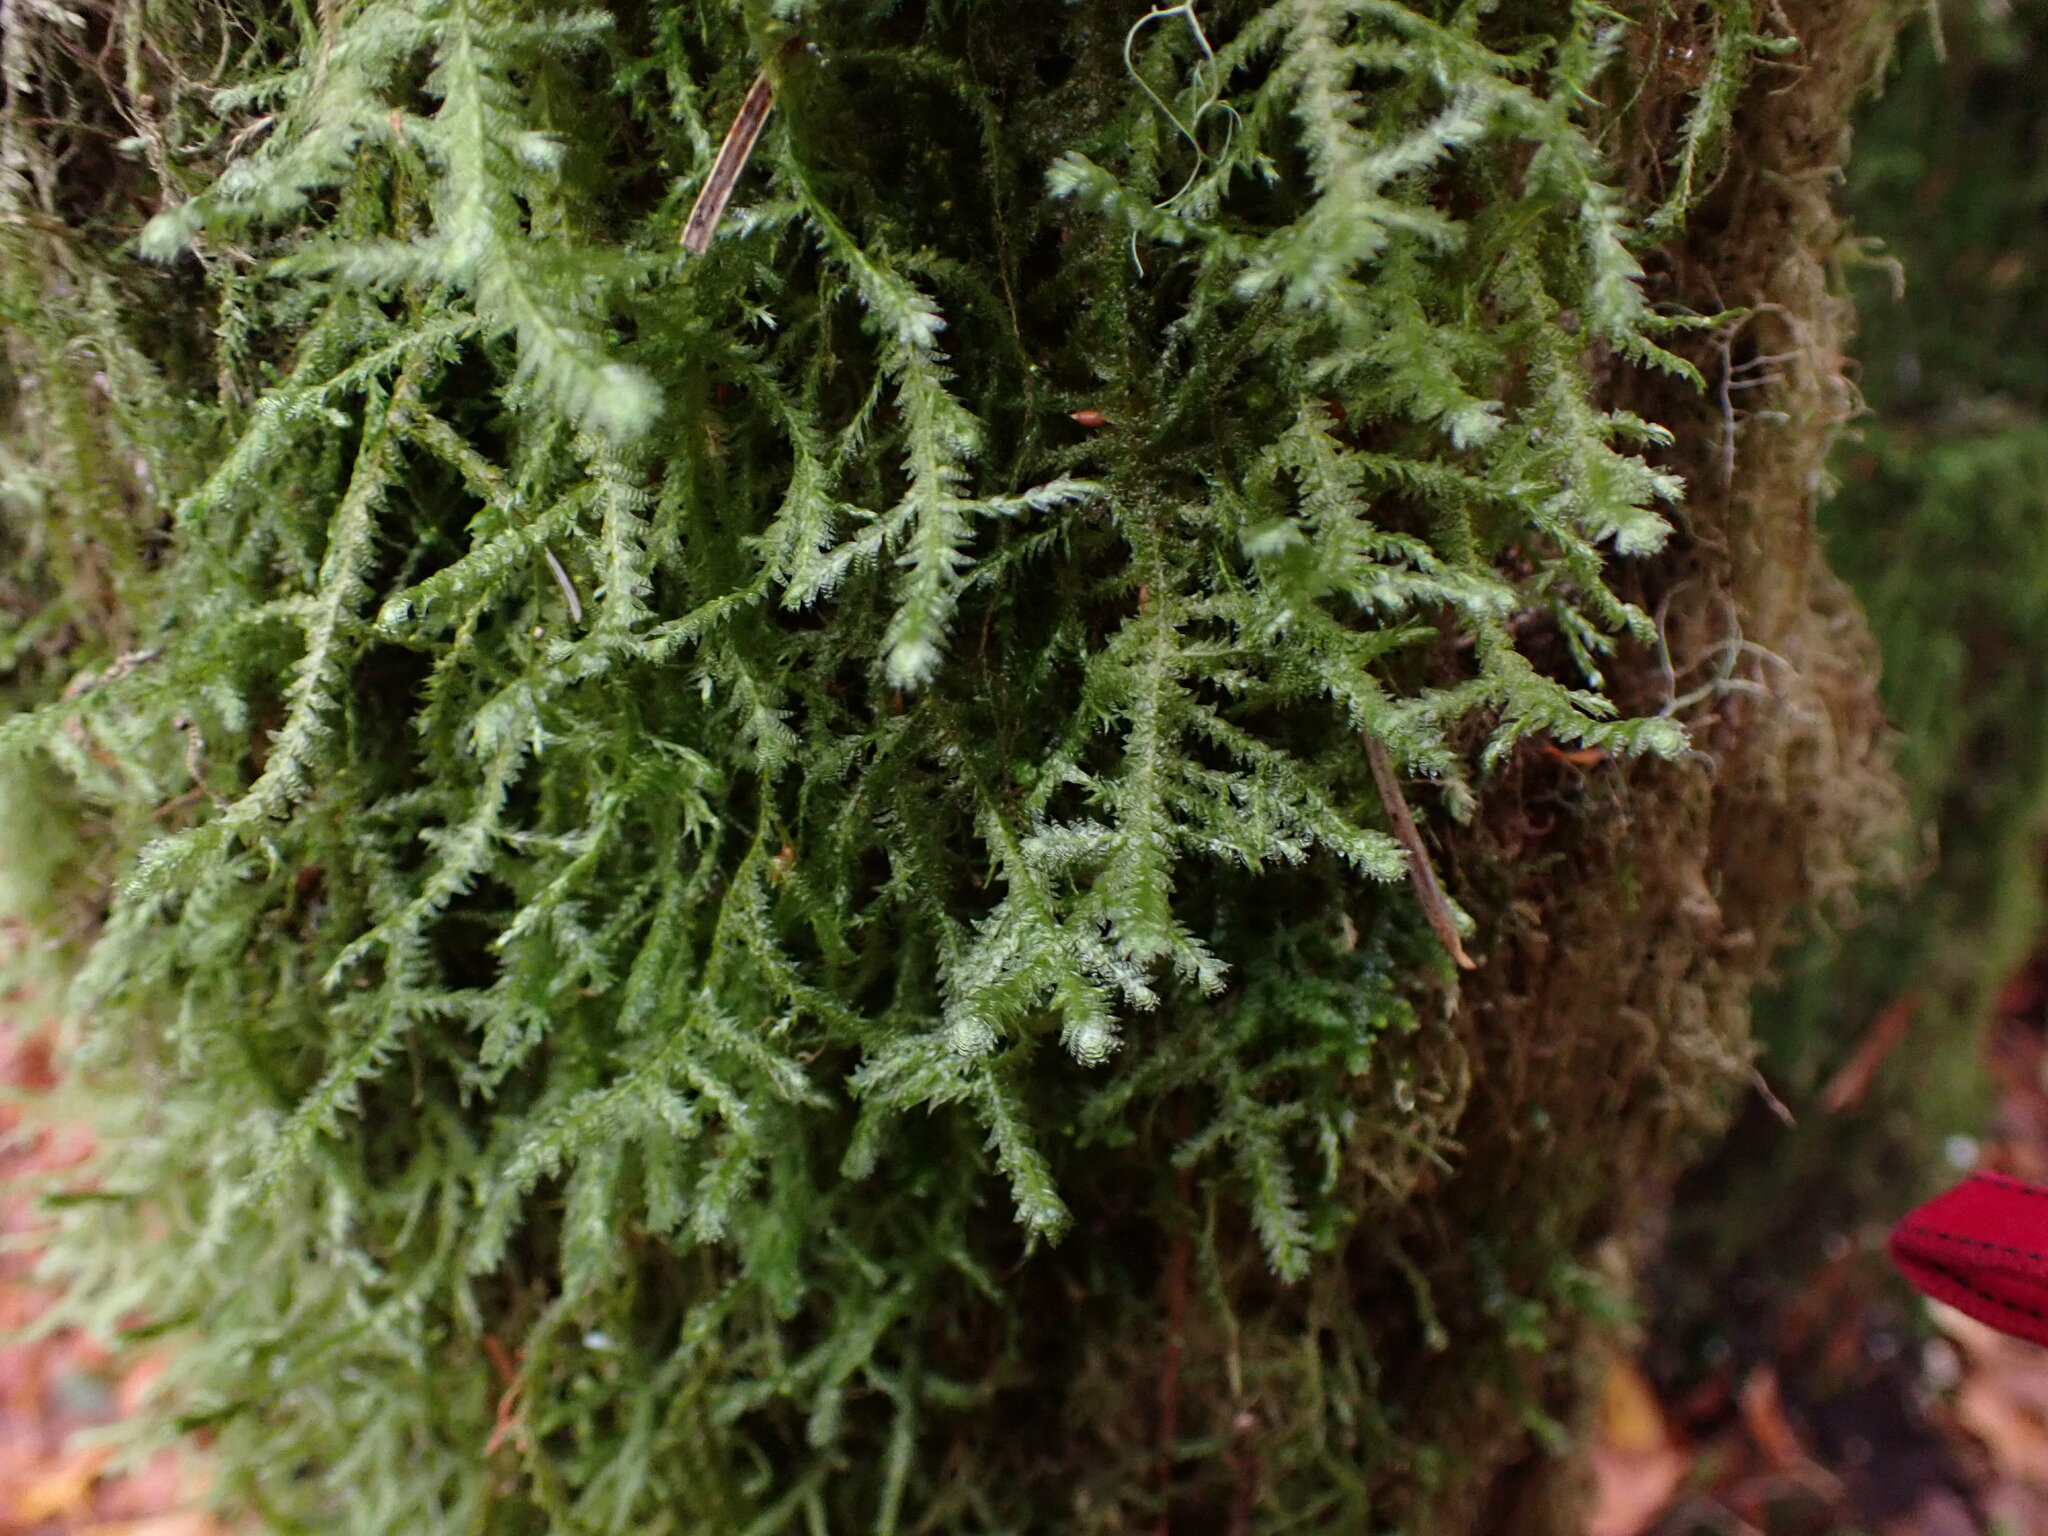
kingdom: Plantae
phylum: Bryophyta
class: Bryopsida
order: Hypnales
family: Neckeraceae
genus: Neckera
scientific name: Neckera douglasii
